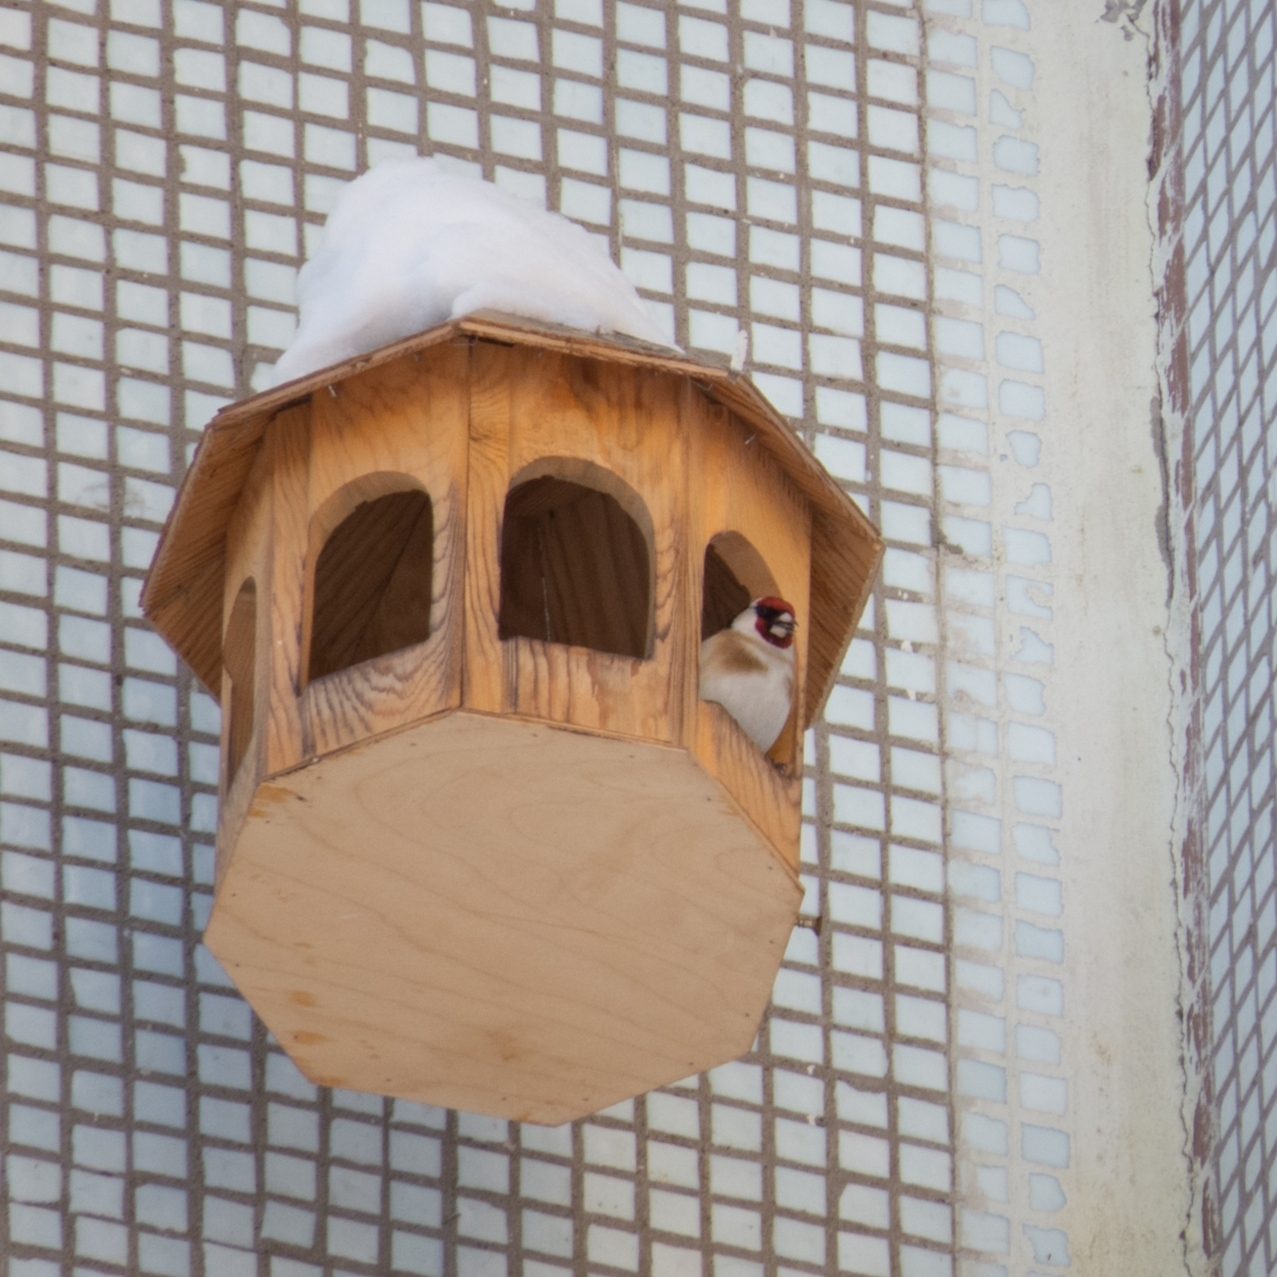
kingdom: Animalia
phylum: Chordata
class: Aves
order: Passeriformes
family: Fringillidae
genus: Carduelis
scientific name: Carduelis carduelis
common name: European goldfinch
